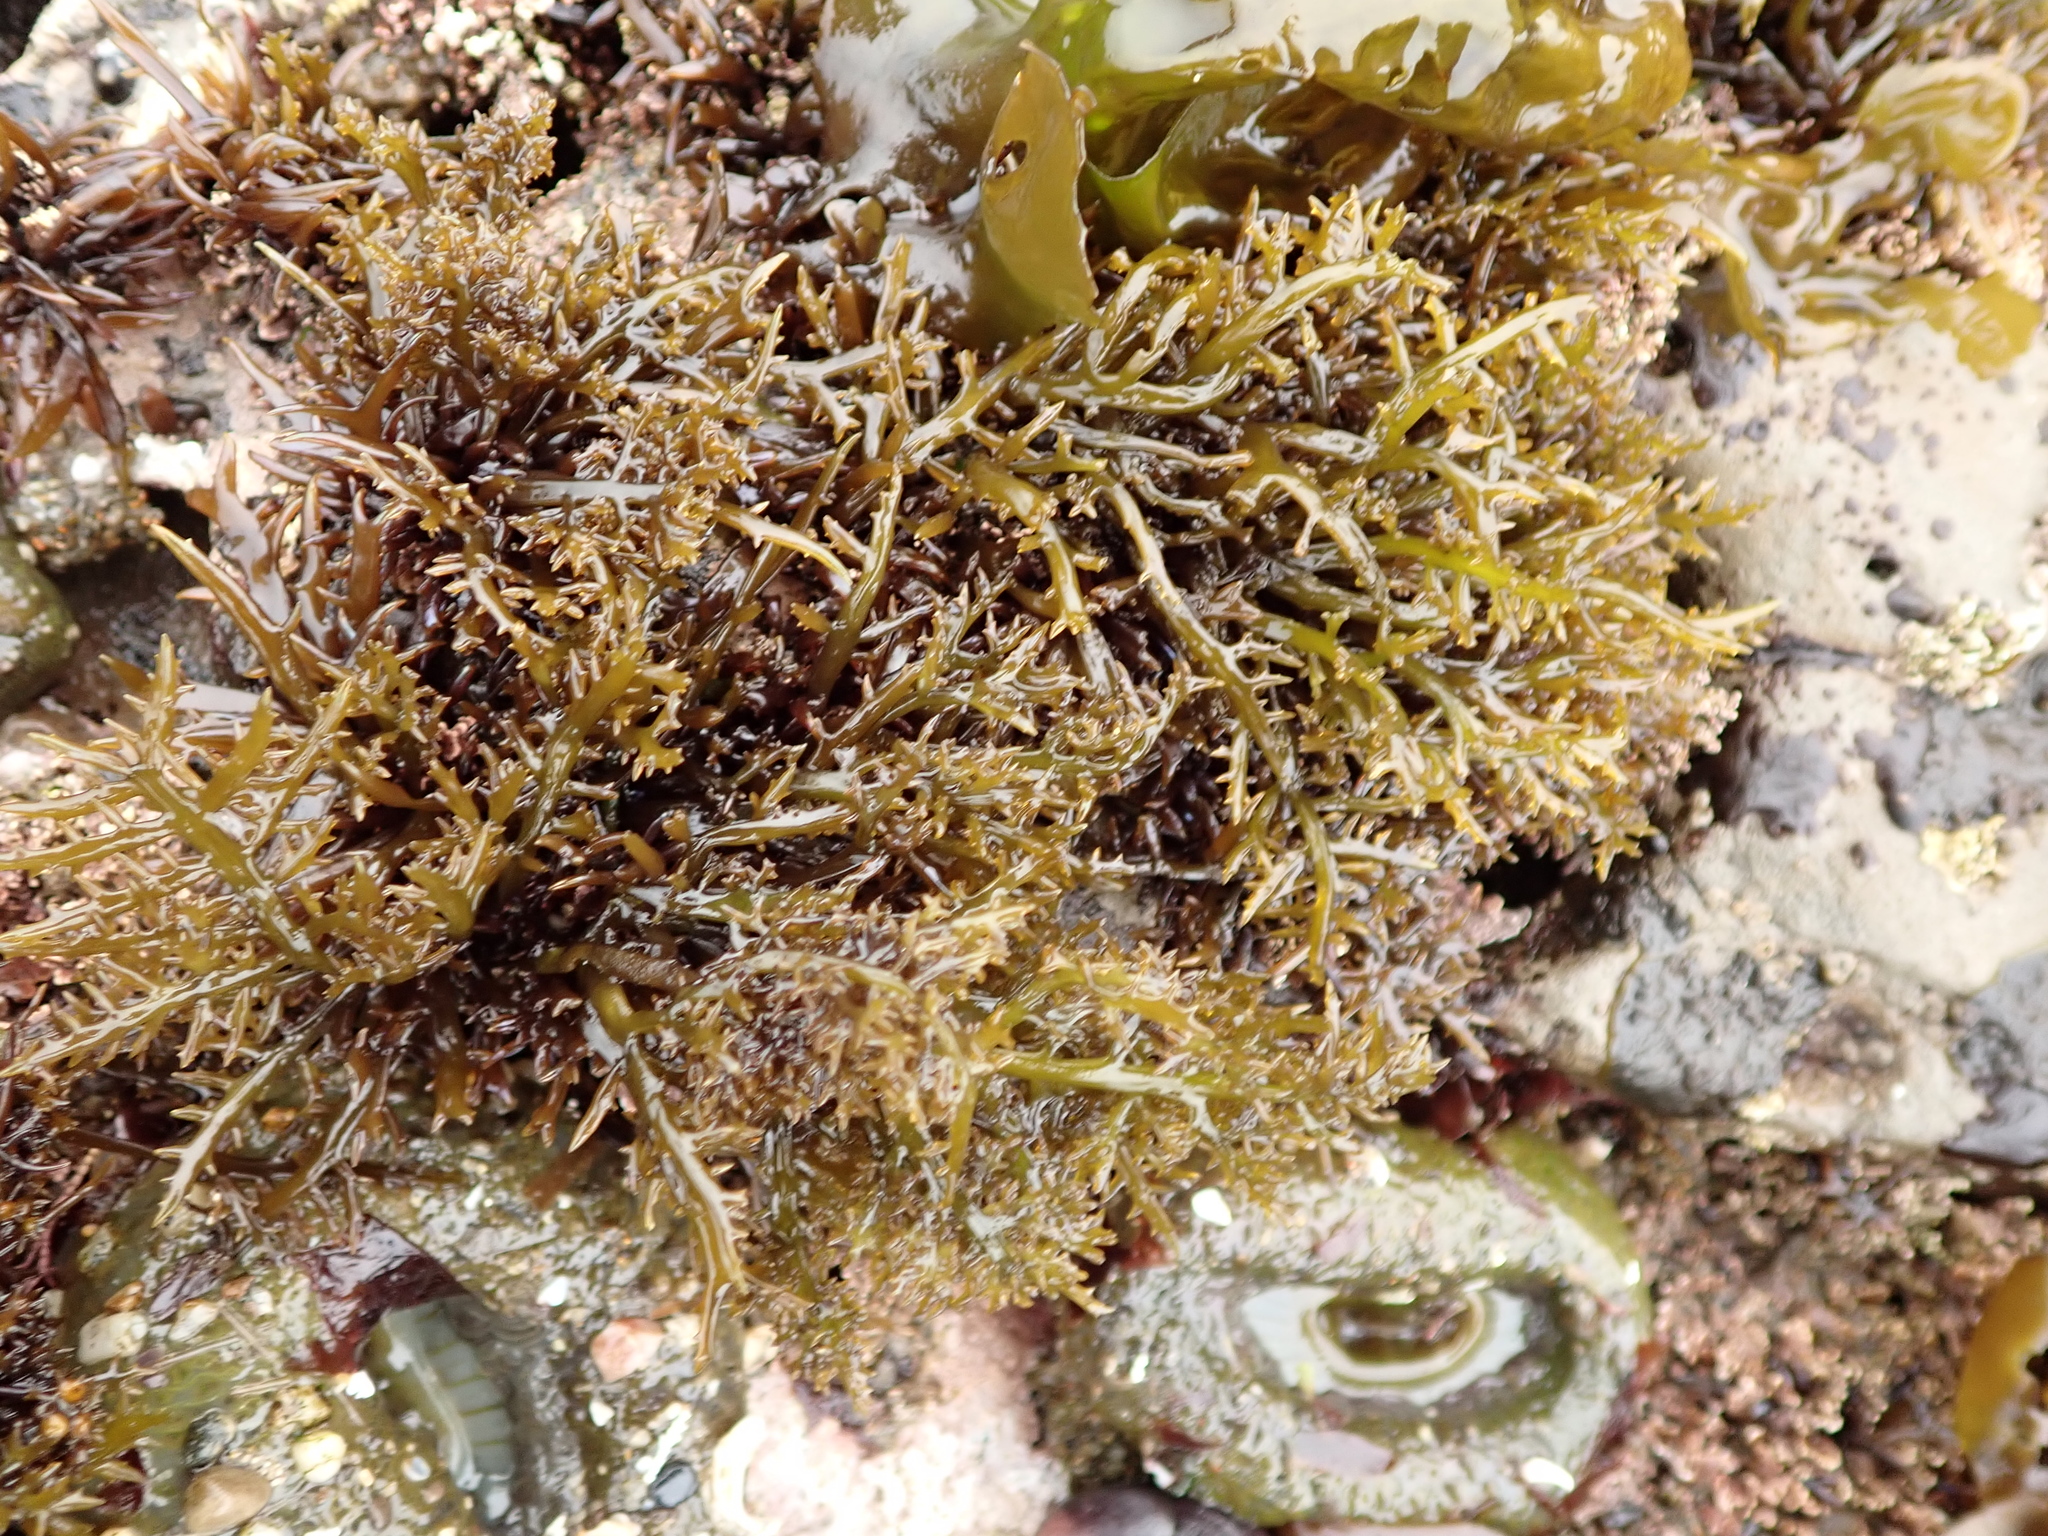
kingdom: Plantae
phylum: Rhodophyta
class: Florideophyceae
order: Gigartinales
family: Gigartinaceae
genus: Chondracanthus
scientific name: Chondracanthus canaliculatus
